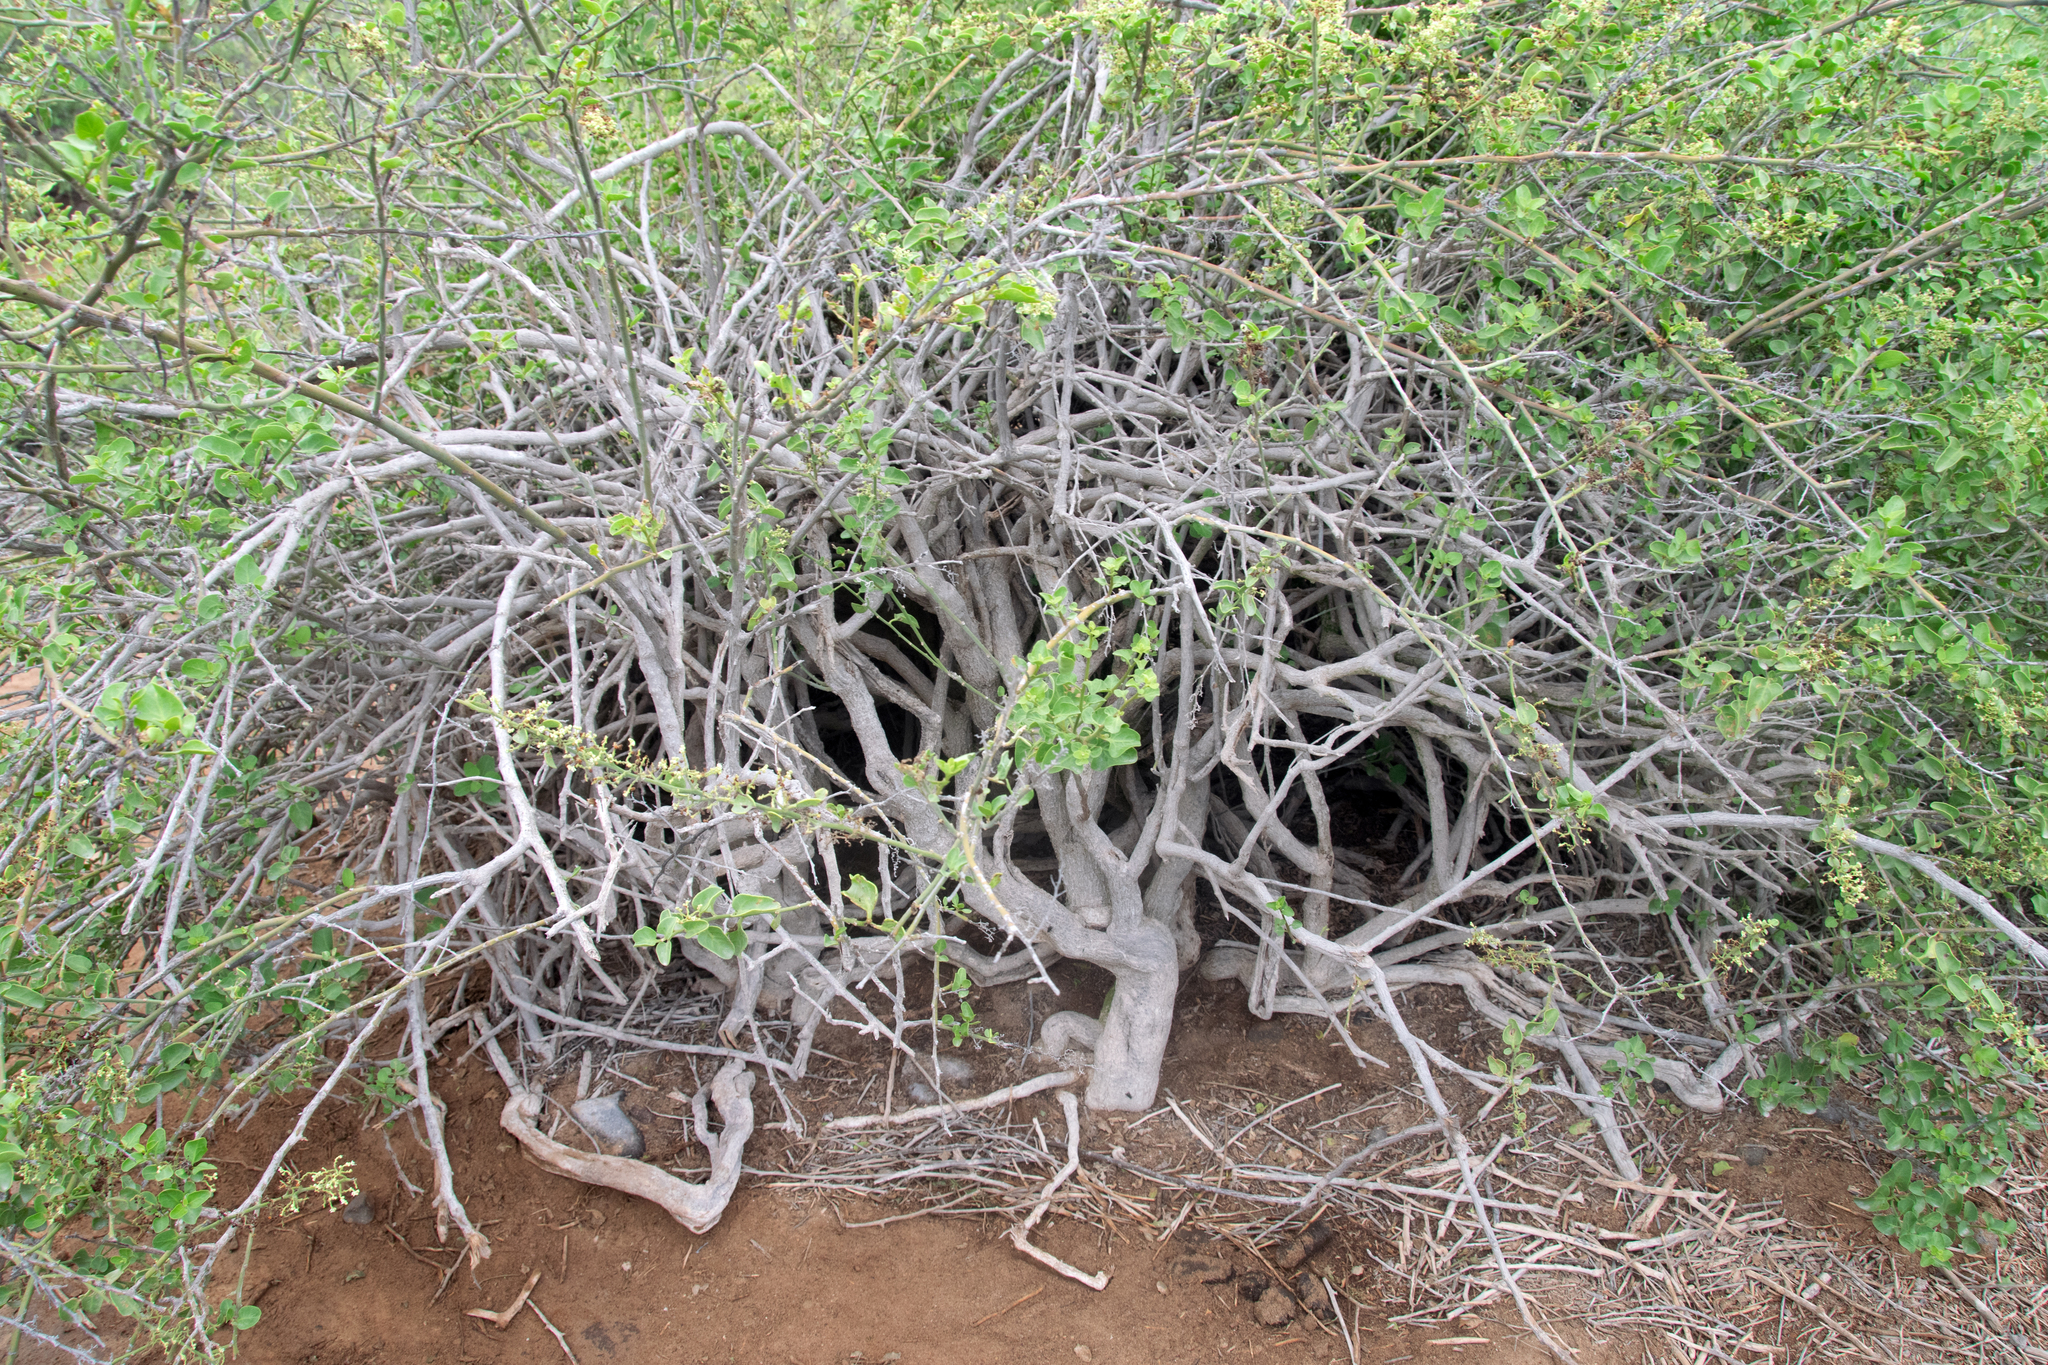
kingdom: Plantae
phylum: Tracheophyta
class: Magnoliopsida
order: Caryophyllales
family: Nyctaginaceae
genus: Cryptocarpus
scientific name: Cryptocarpus pyriformis
